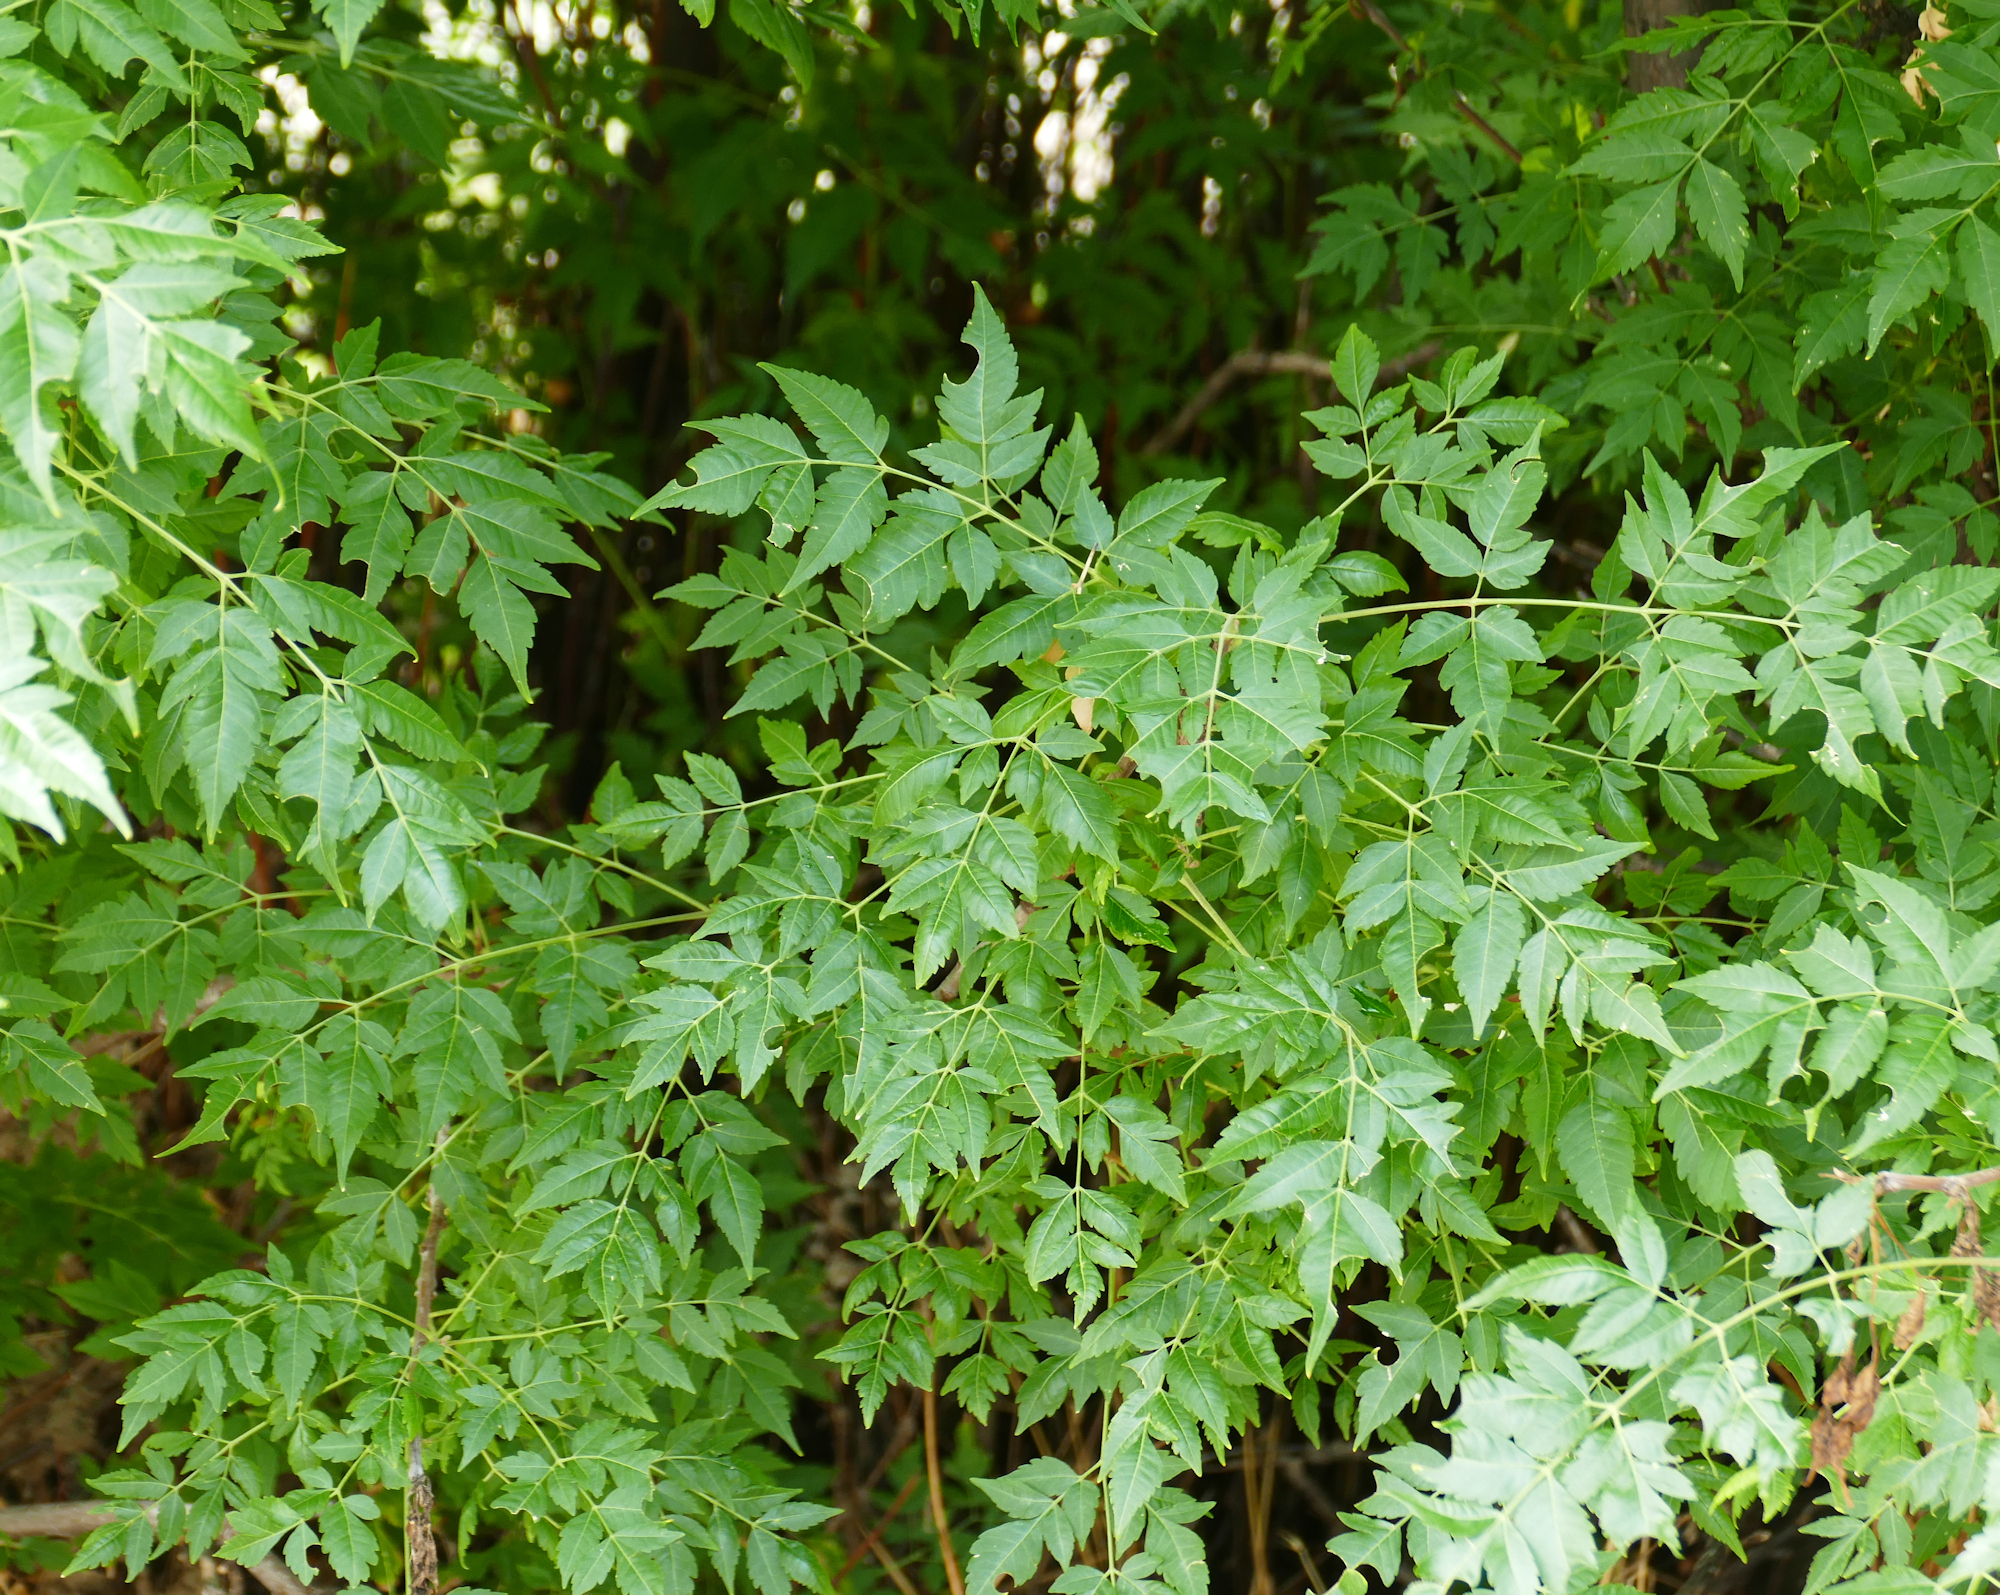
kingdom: Plantae
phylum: Tracheophyta
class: Magnoliopsida
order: Sapindales
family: Meliaceae
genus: Melia
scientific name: Melia azedarach
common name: Chinaberrytree
